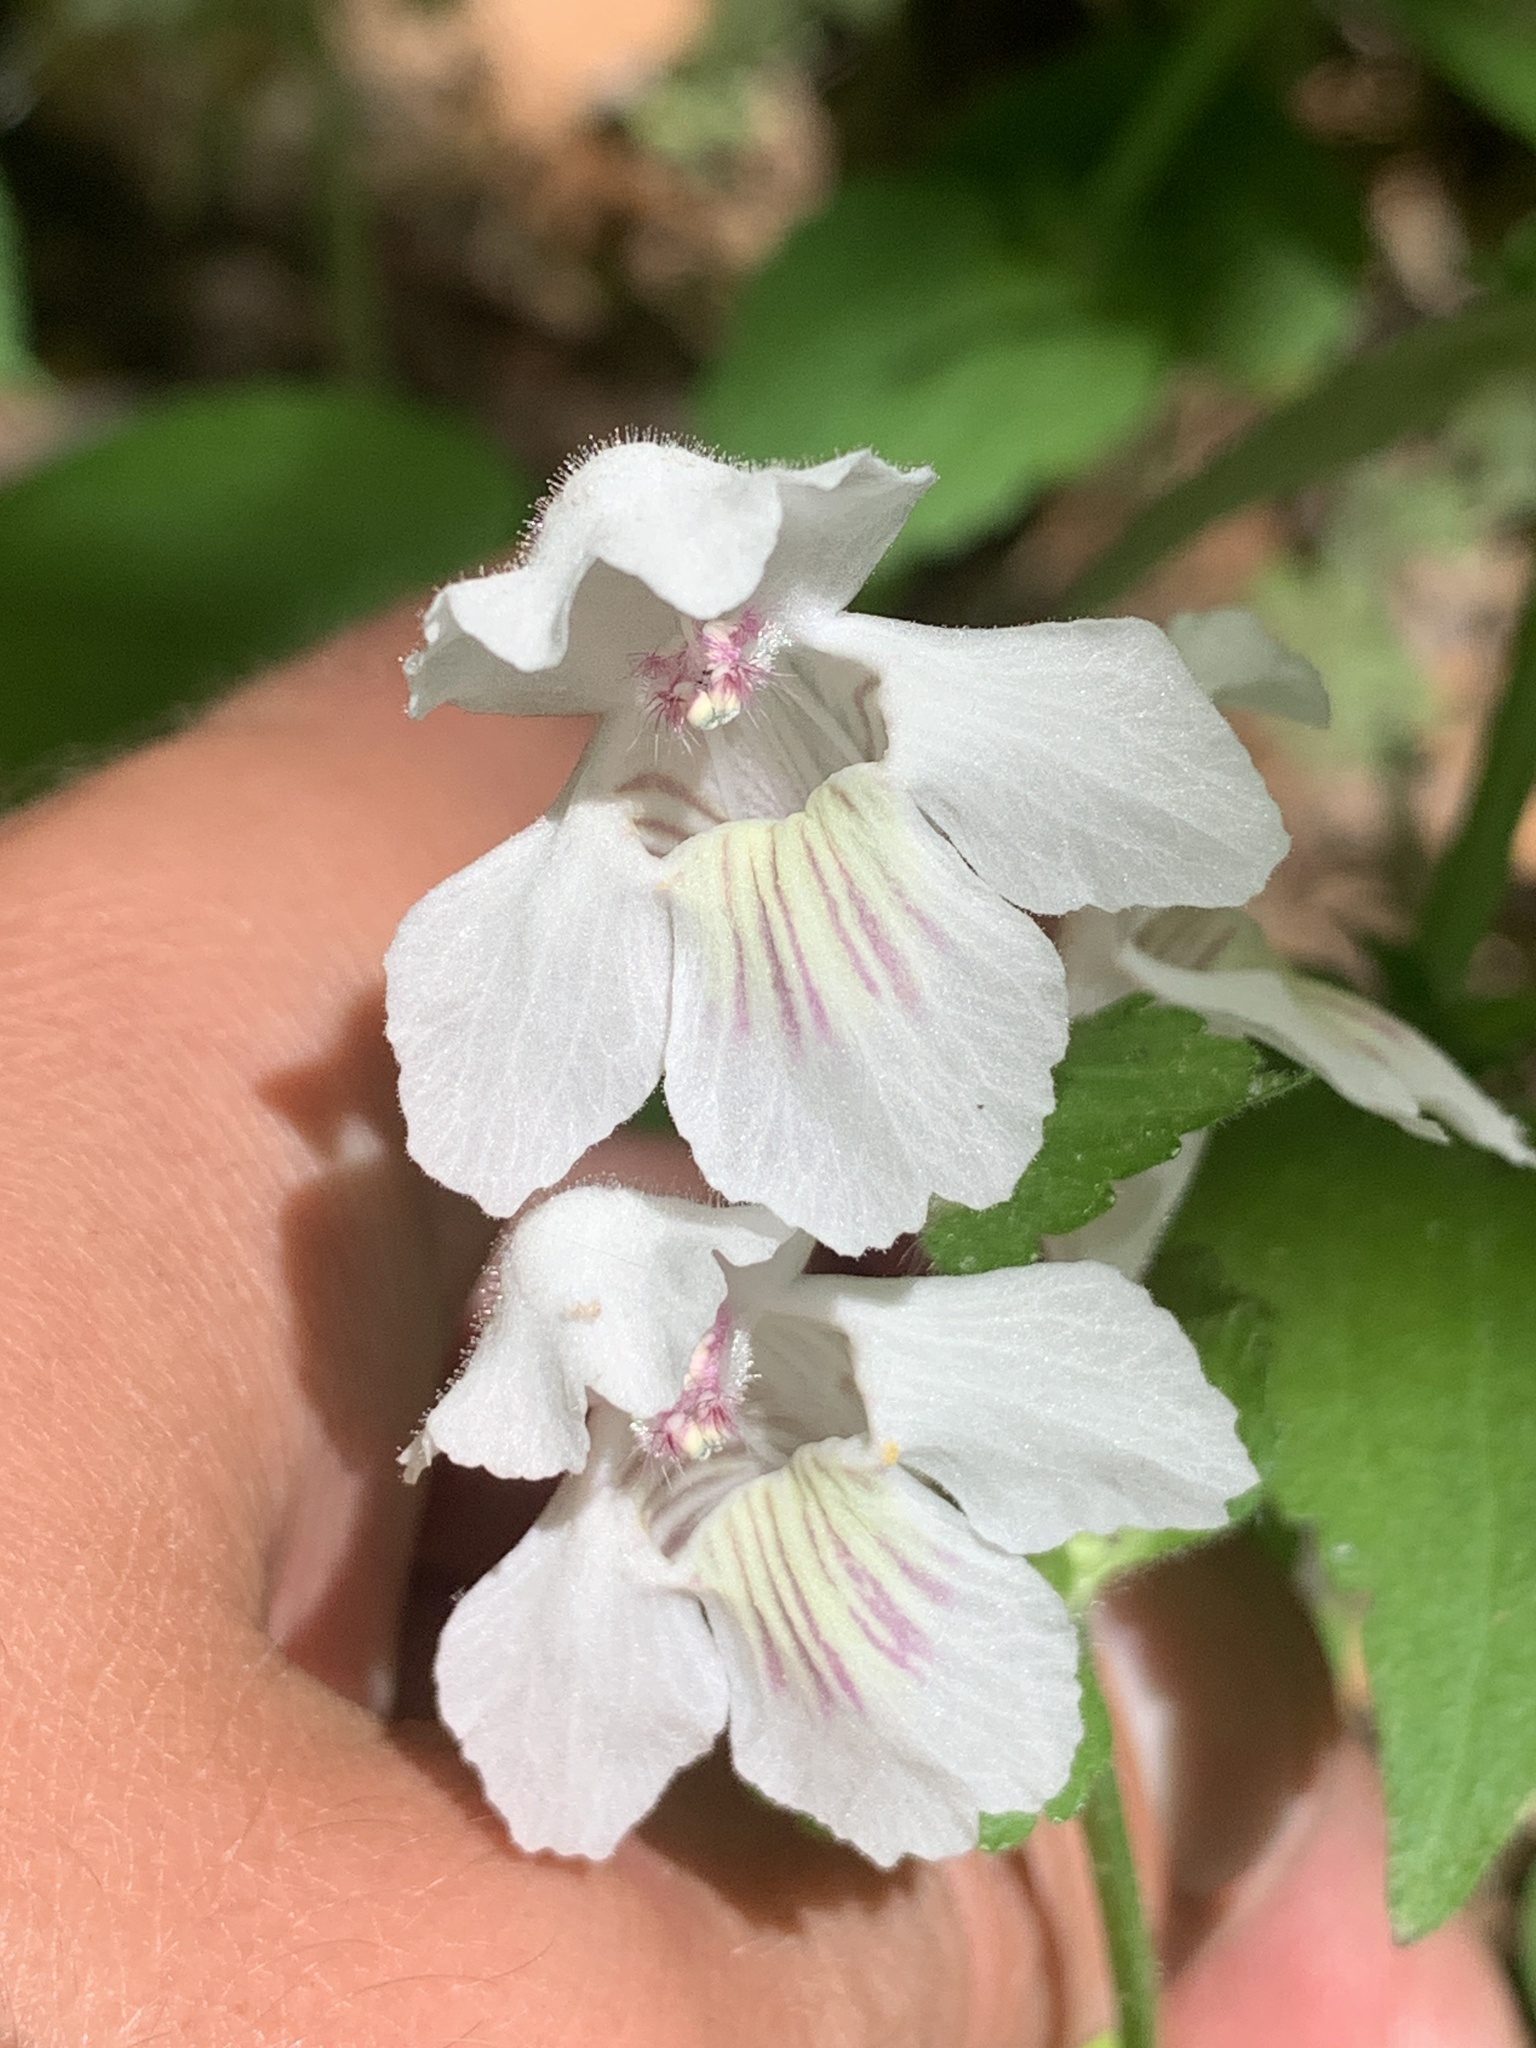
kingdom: Plantae
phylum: Tracheophyta
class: Magnoliopsida
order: Lamiales
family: Lamiaceae
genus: Synandra
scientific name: Synandra hispidula
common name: Synandra
